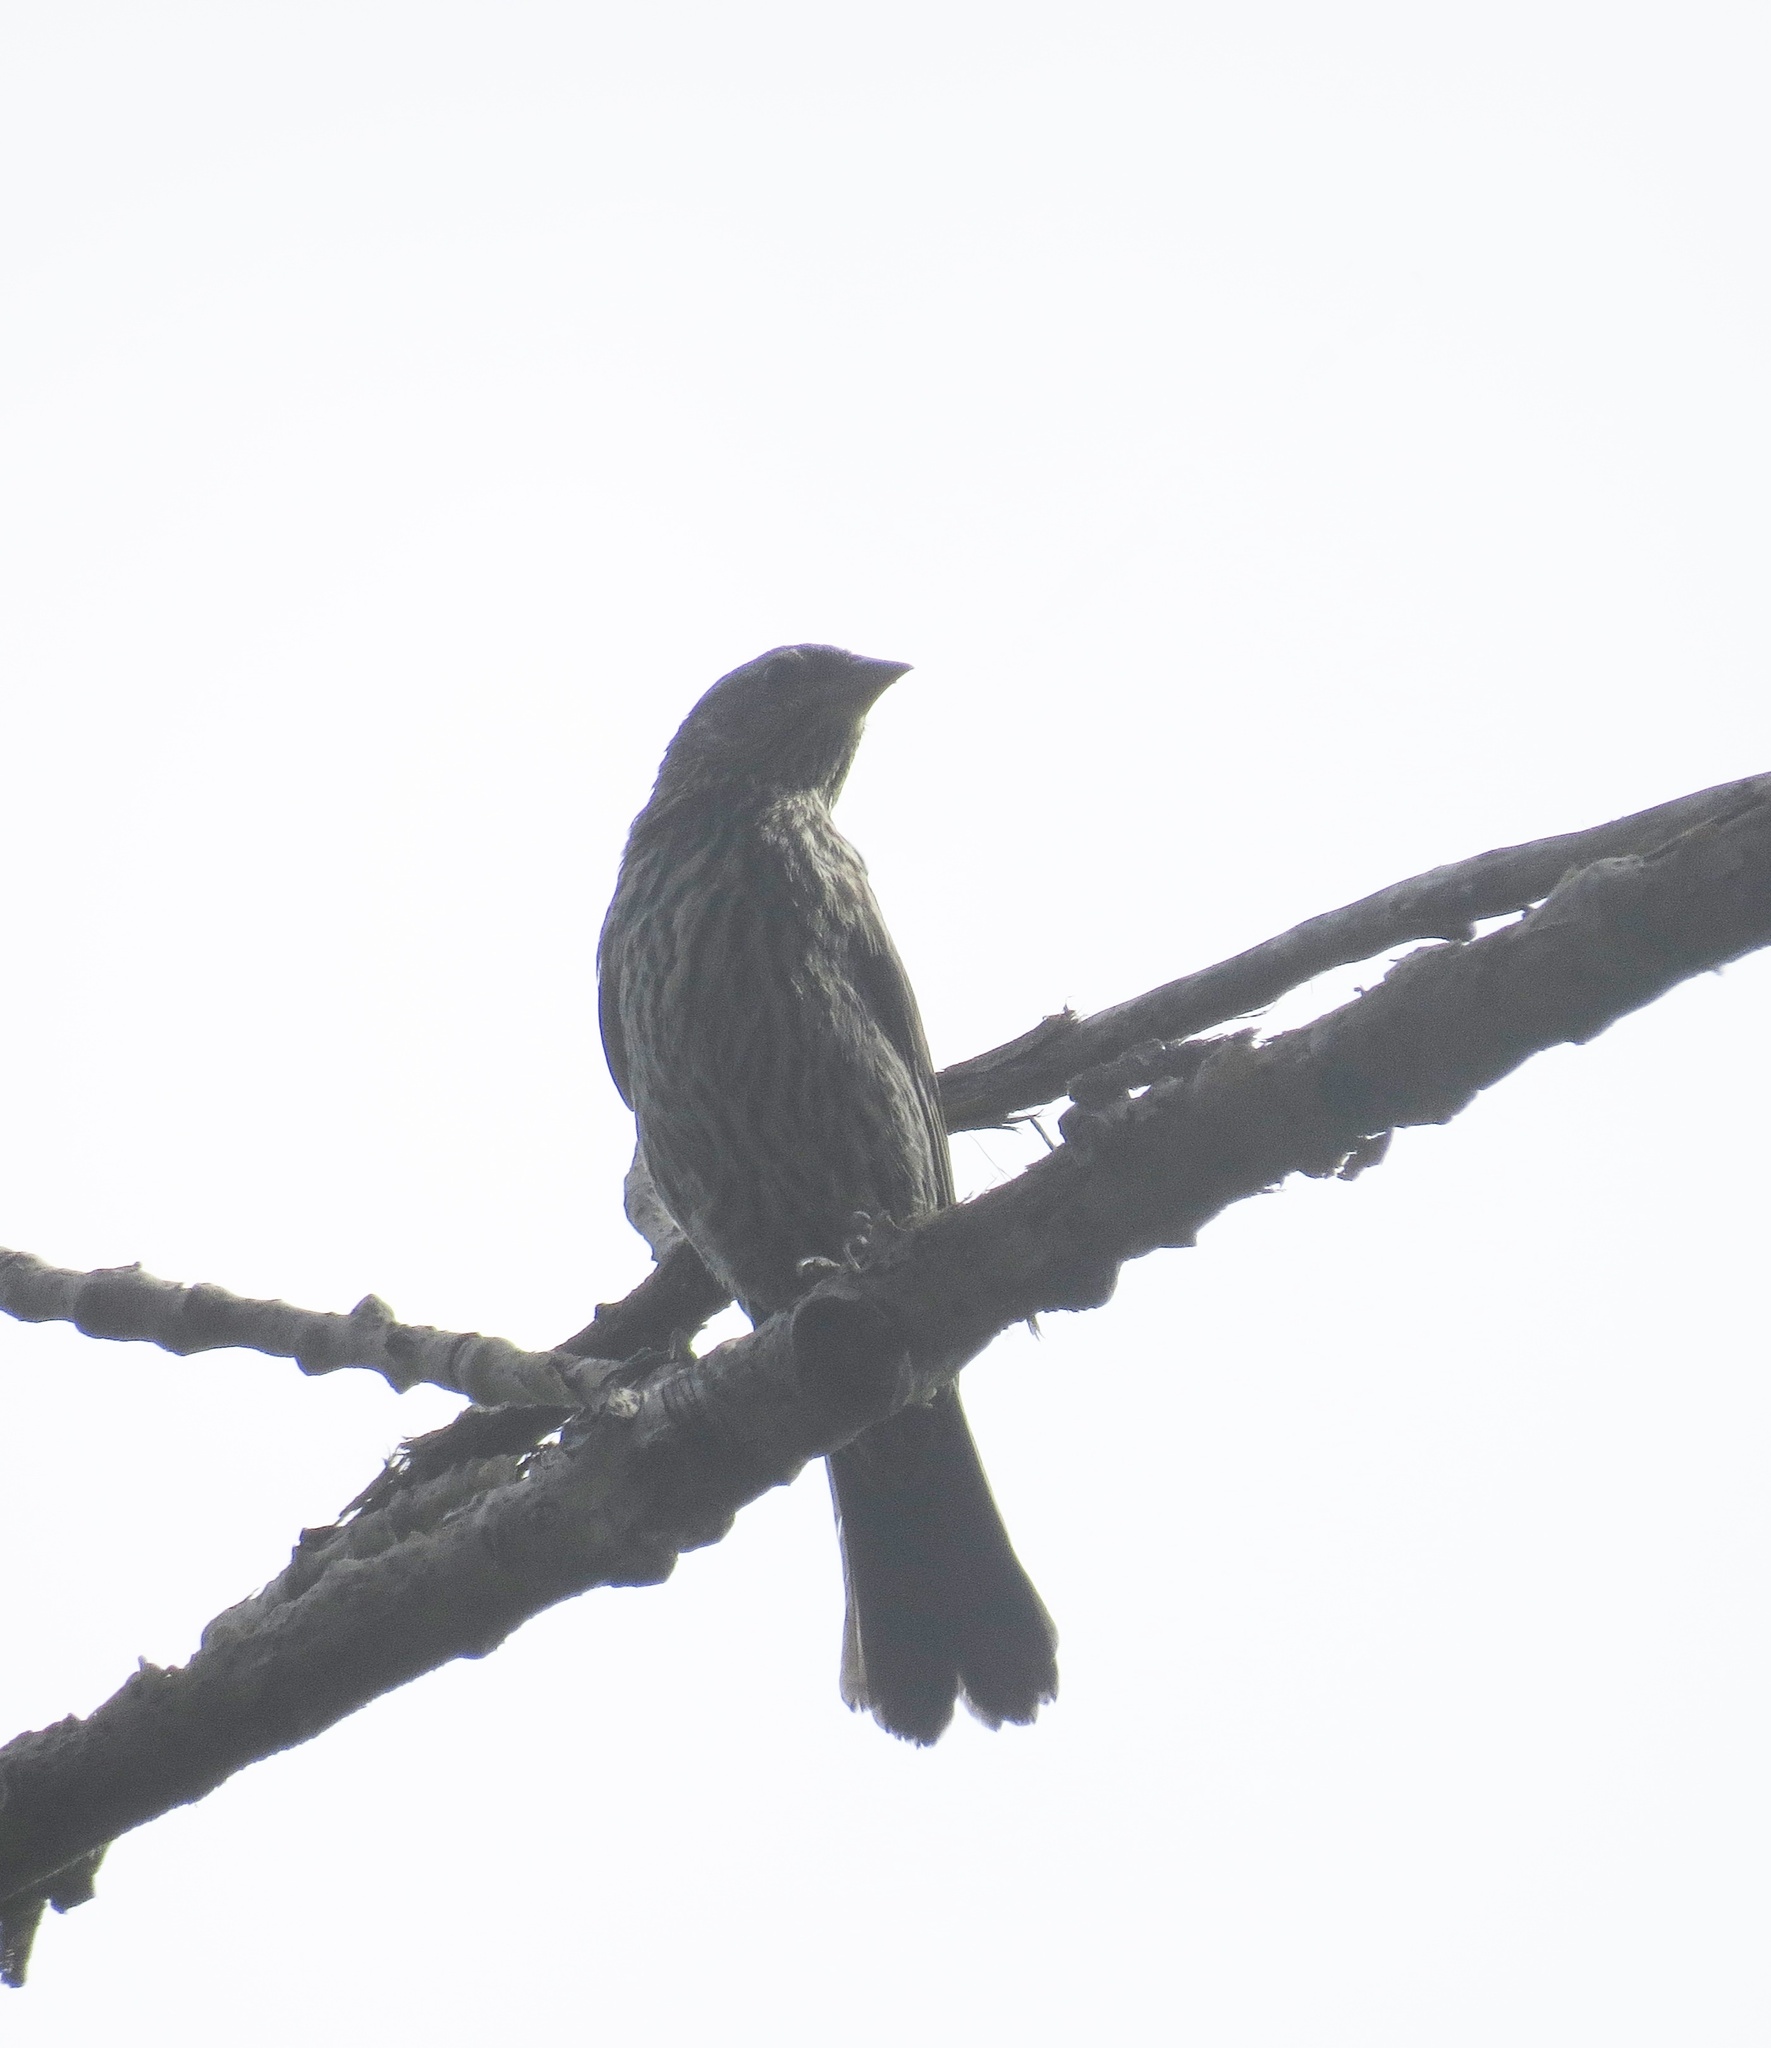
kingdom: Animalia
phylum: Chordata
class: Aves
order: Passeriformes
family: Icteridae
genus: Agelaius
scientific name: Agelaius phoeniceus
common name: Red-winged blackbird
